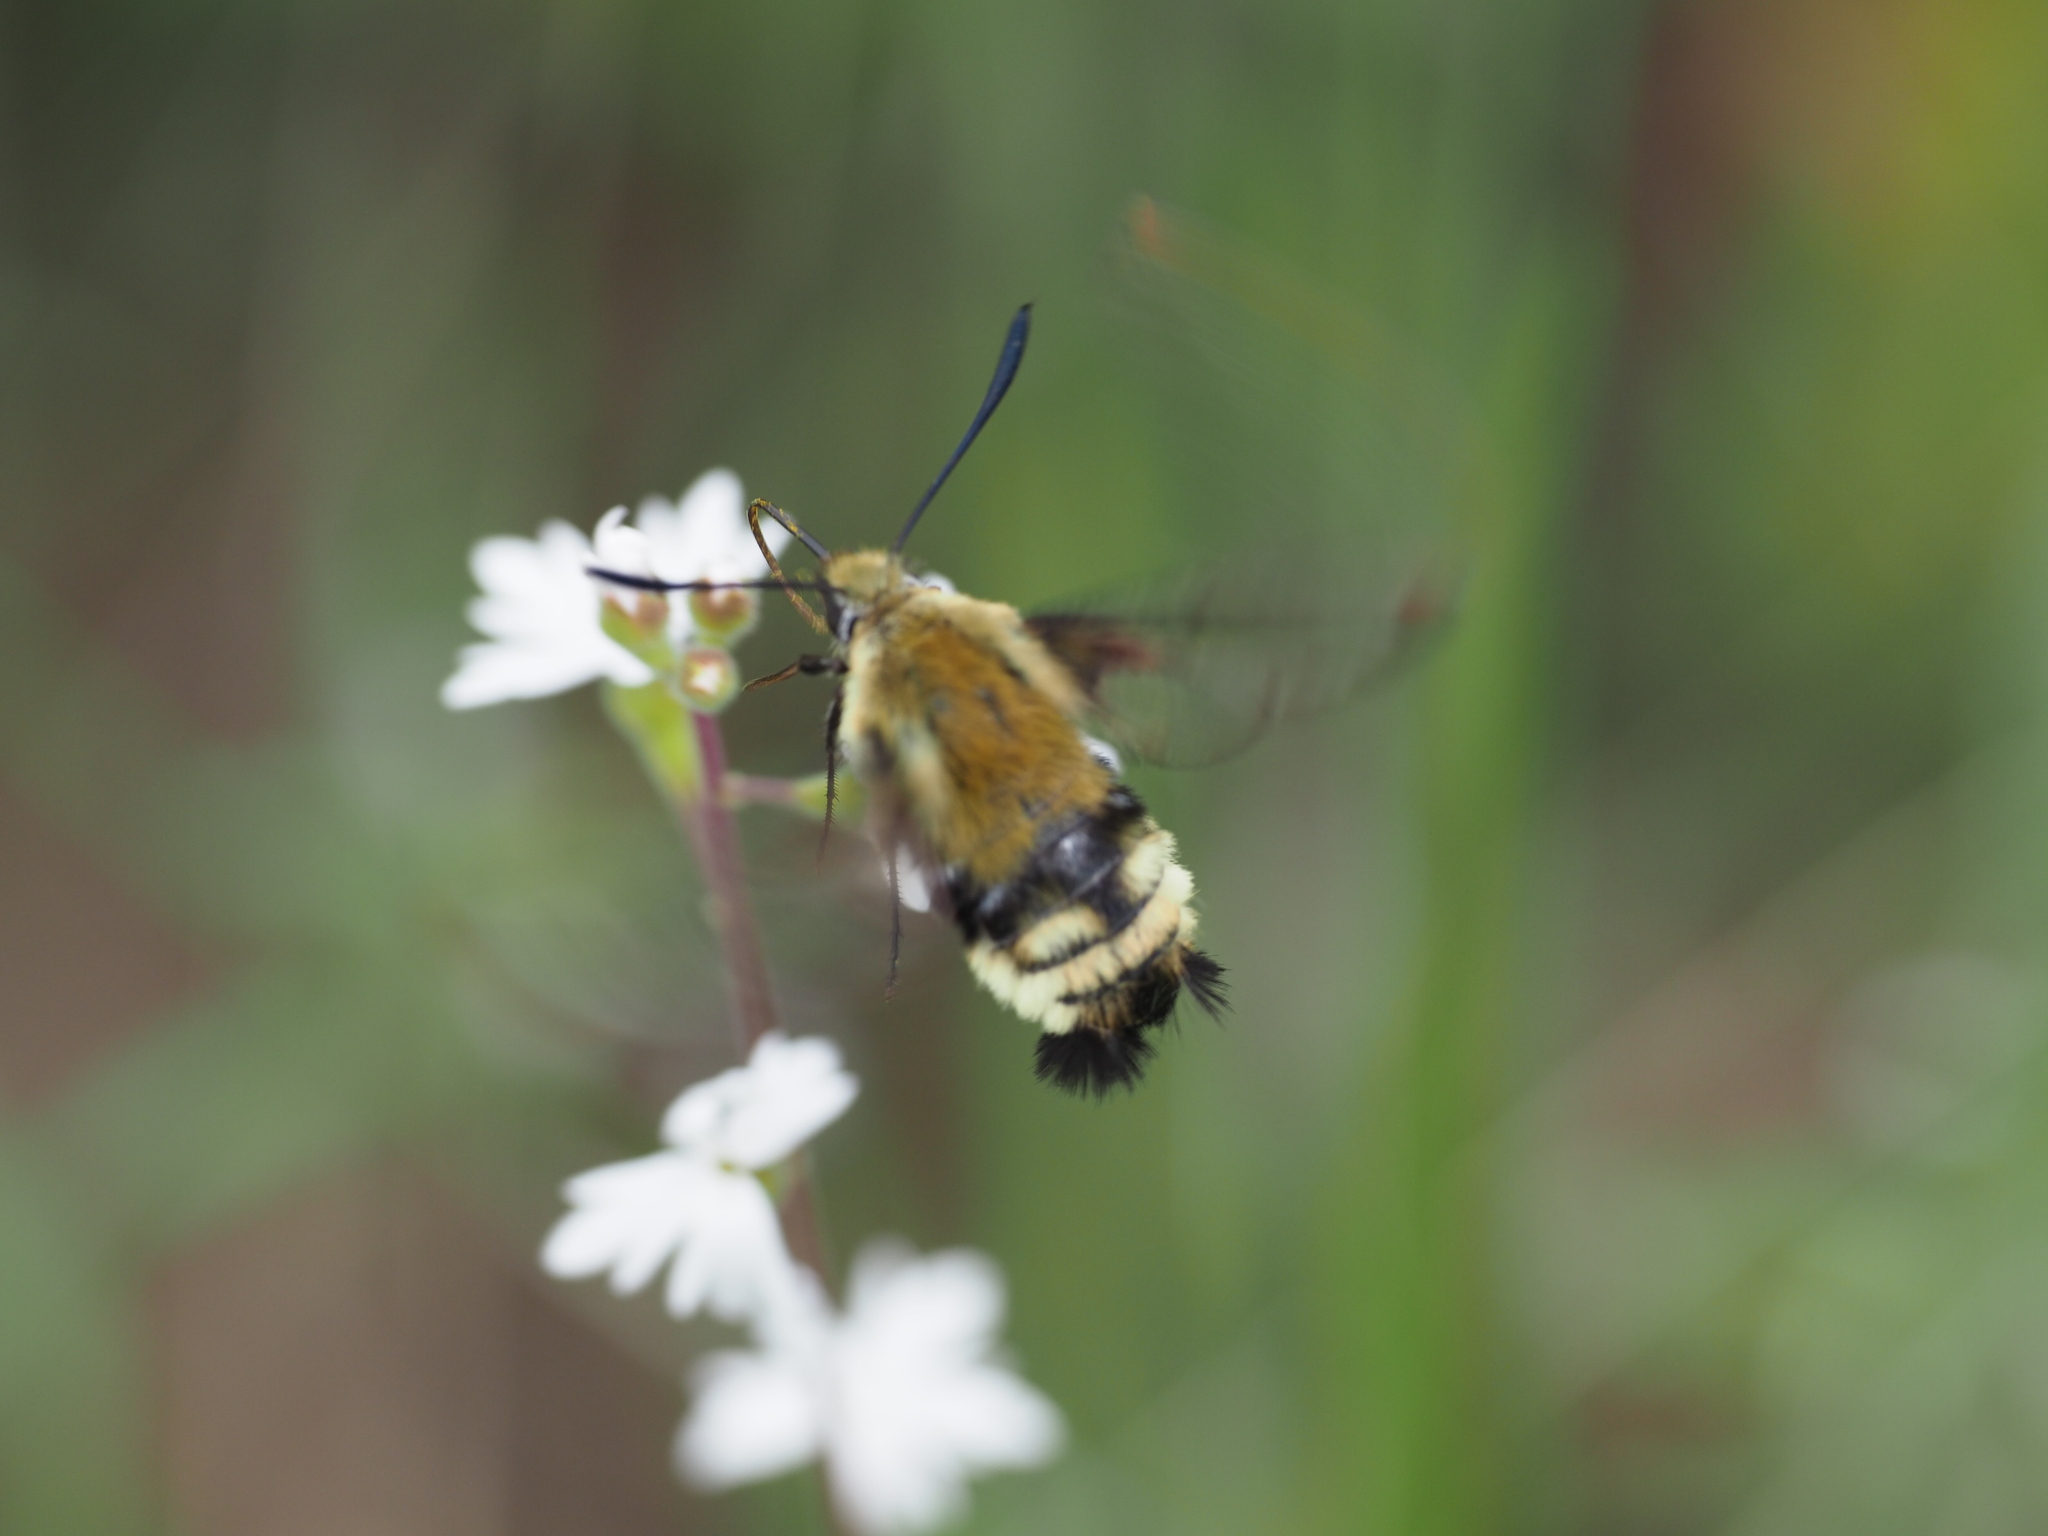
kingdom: Animalia
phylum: Arthropoda
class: Insecta
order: Lepidoptera
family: Sphingidae
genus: Hemaris
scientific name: Hemaris thetis
